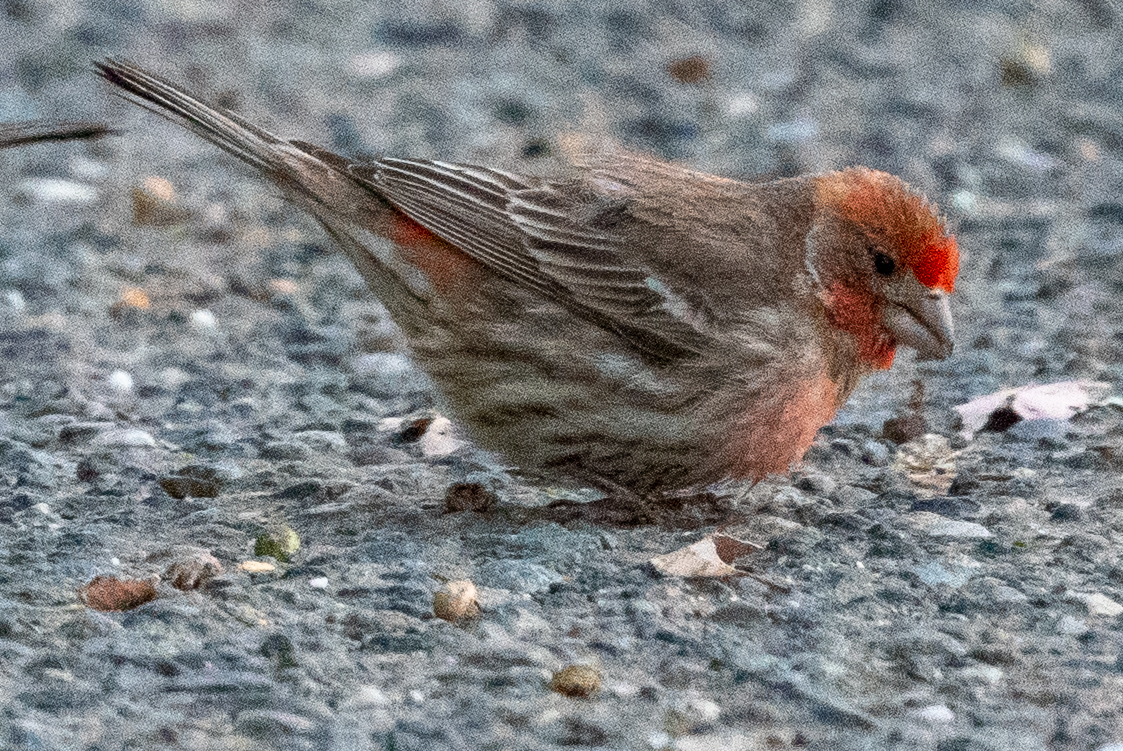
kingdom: Animalia
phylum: Chordata
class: Aves
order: Passeriformes
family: Fringillidae
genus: Haemorhous
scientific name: Haemorhous mexicanus
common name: House finch
